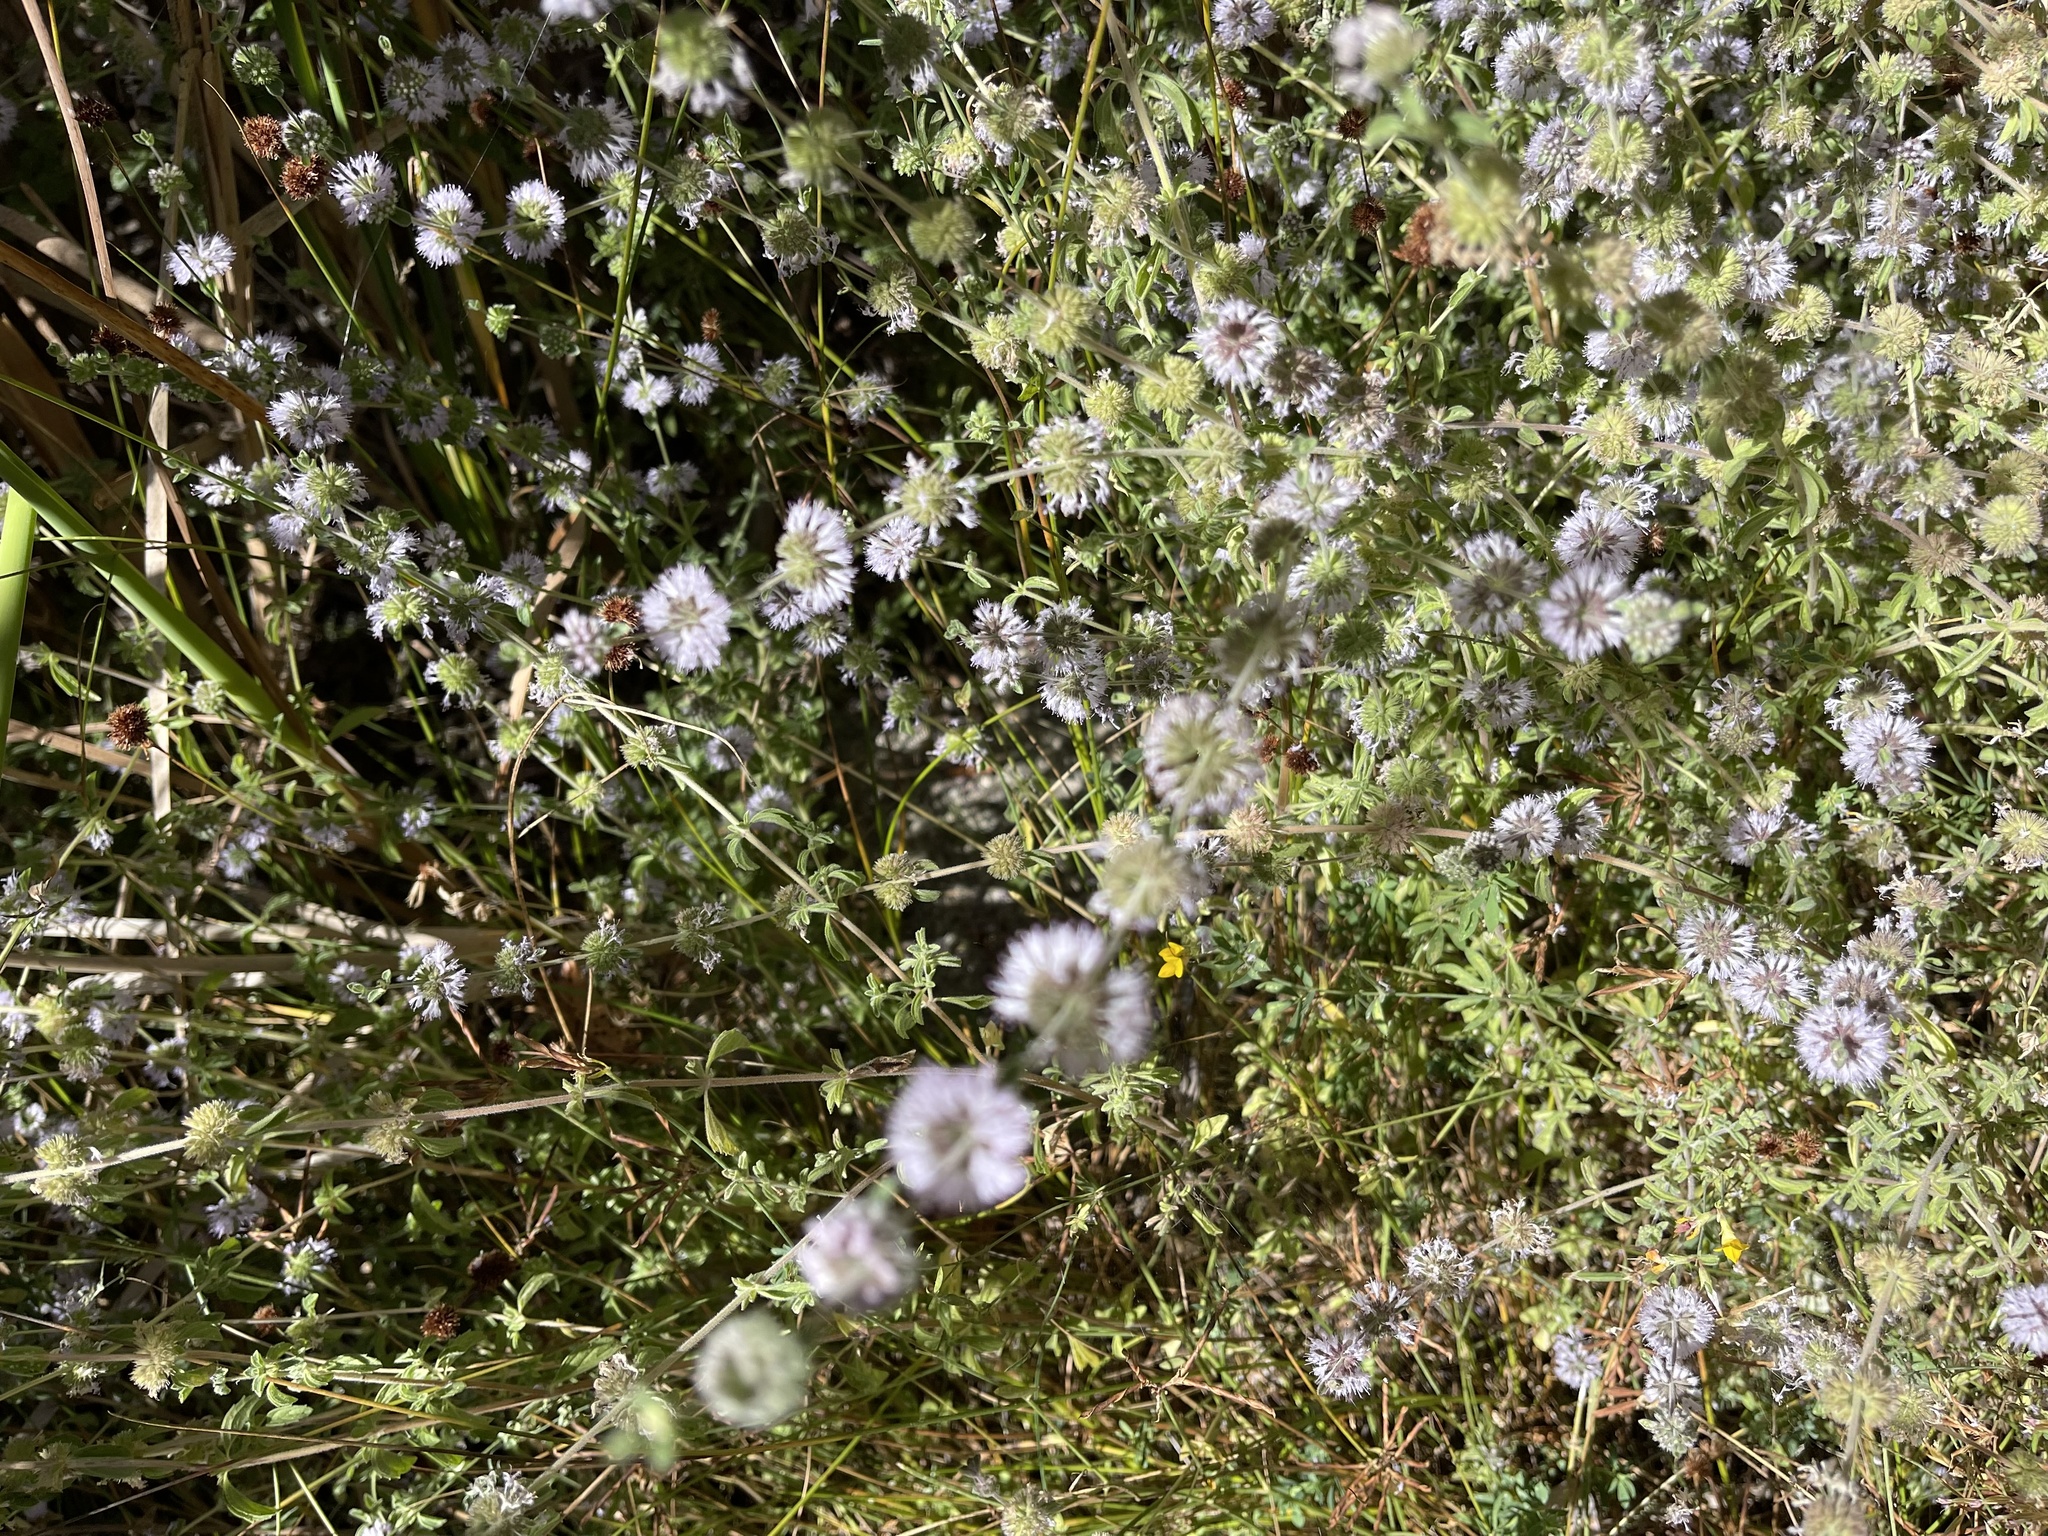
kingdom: Plantae
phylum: Tracheophyta
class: Magnoliopsida
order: Lamiales
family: Lamiaceae
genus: Mentha
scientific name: Mentha pulegium
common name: Pennyroyal
